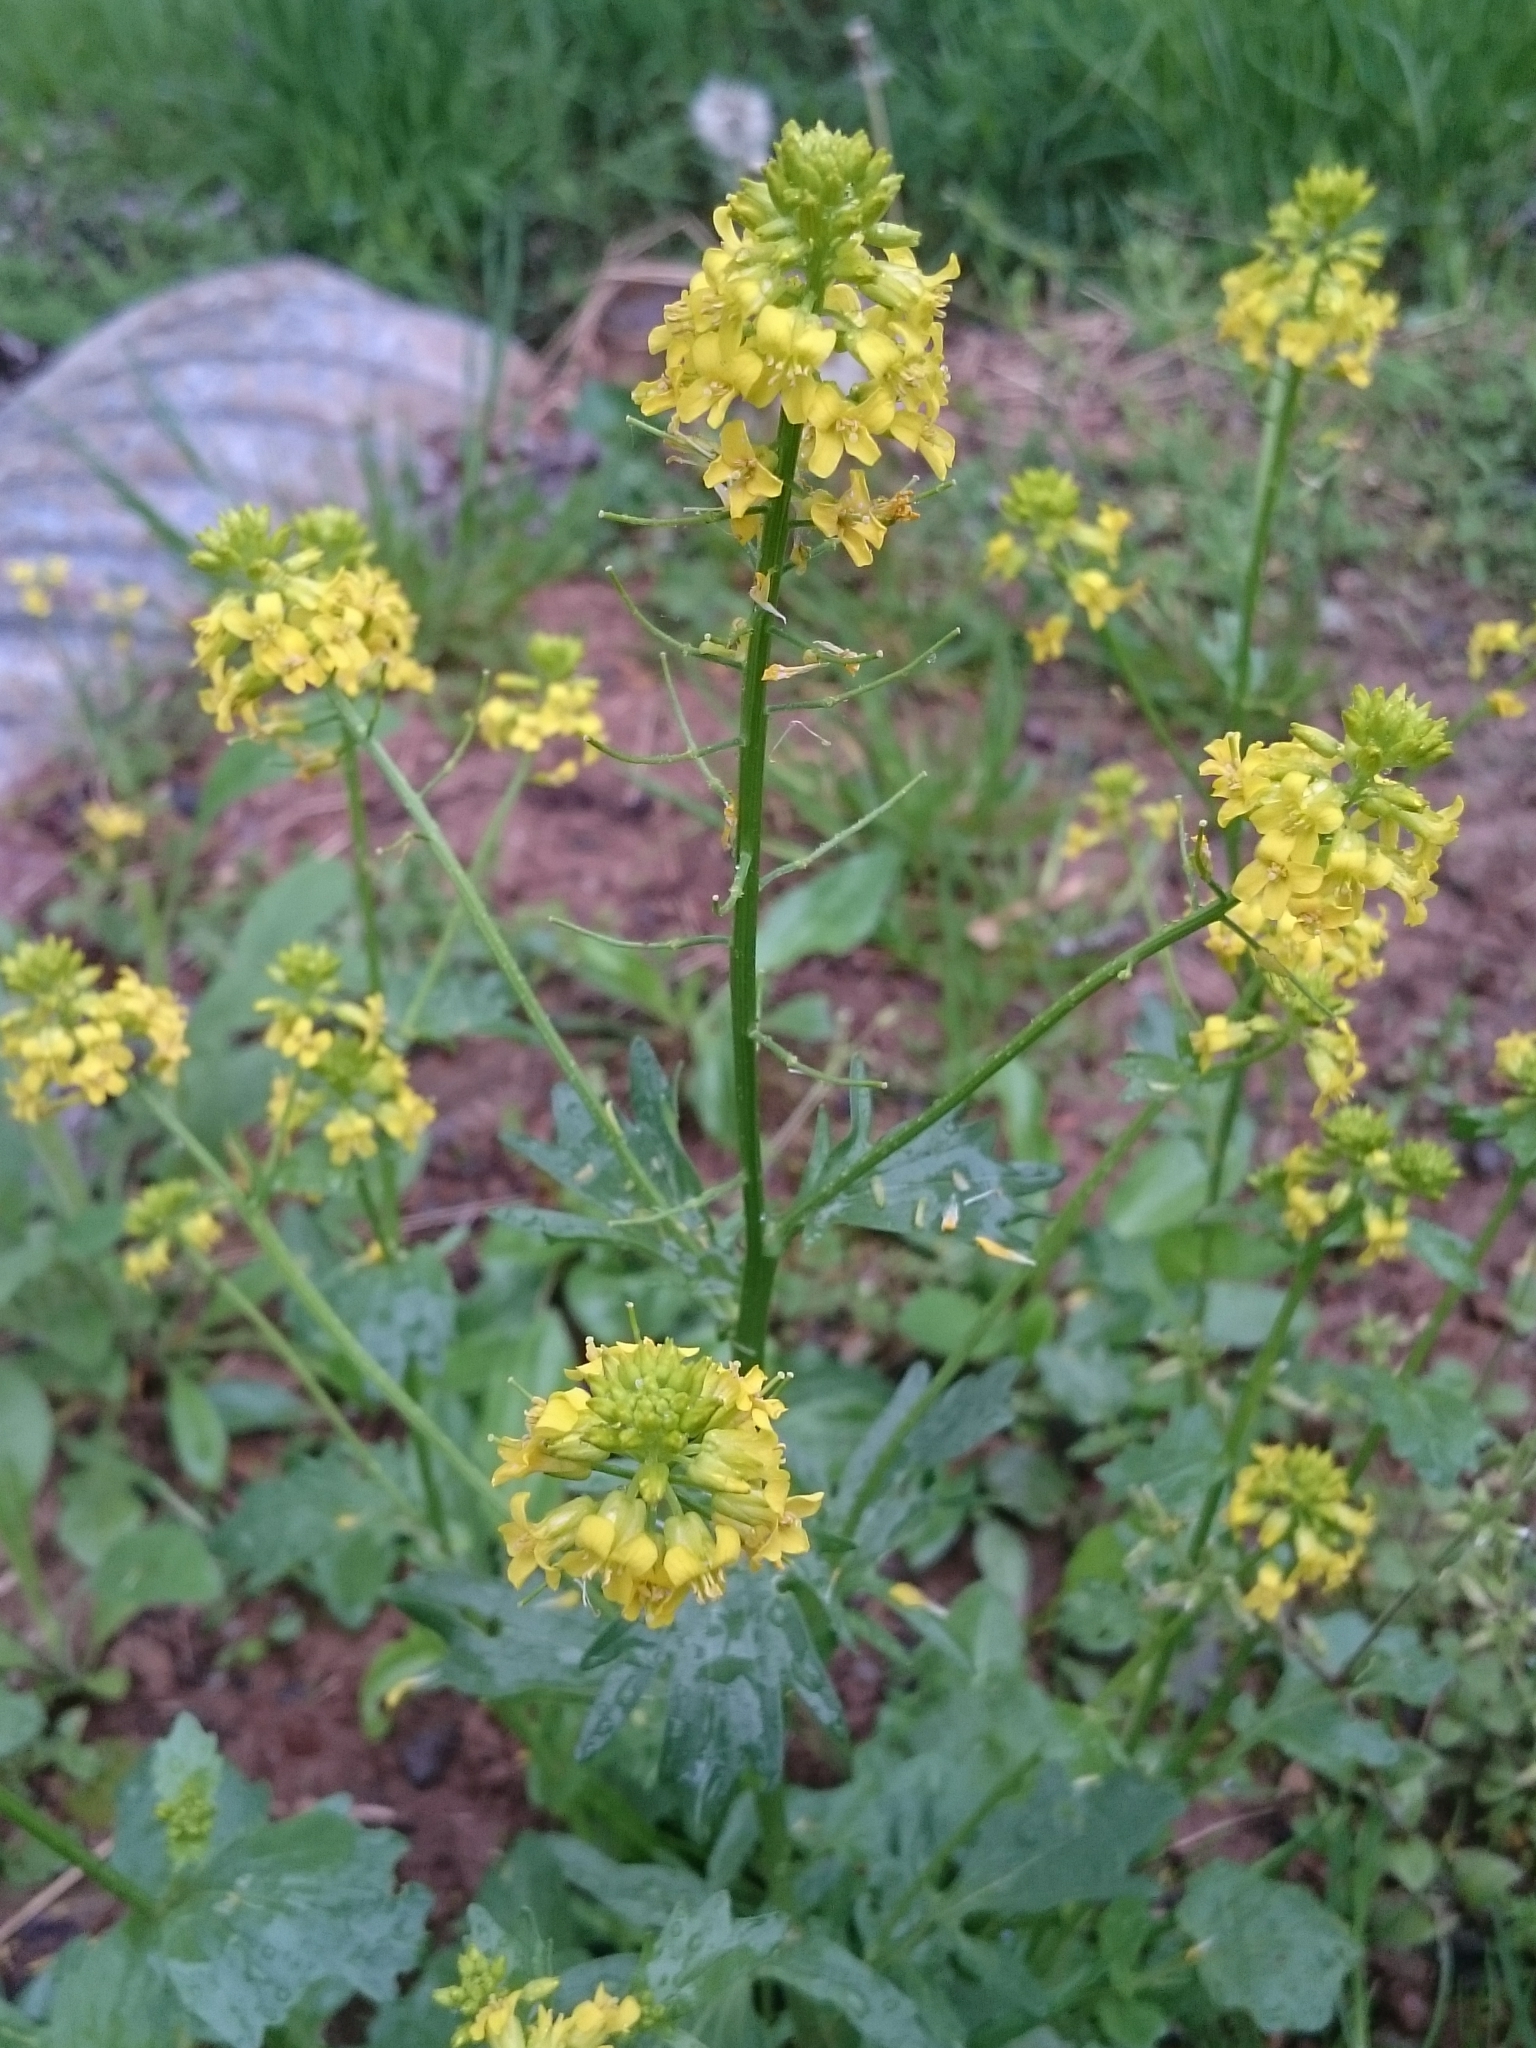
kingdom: Plantae
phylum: Tracheophyta
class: Magnoliopsida
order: Brassicales
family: Brassicaceae
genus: Barbarea
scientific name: Barbarea vulgaris
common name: Cressy-greens
